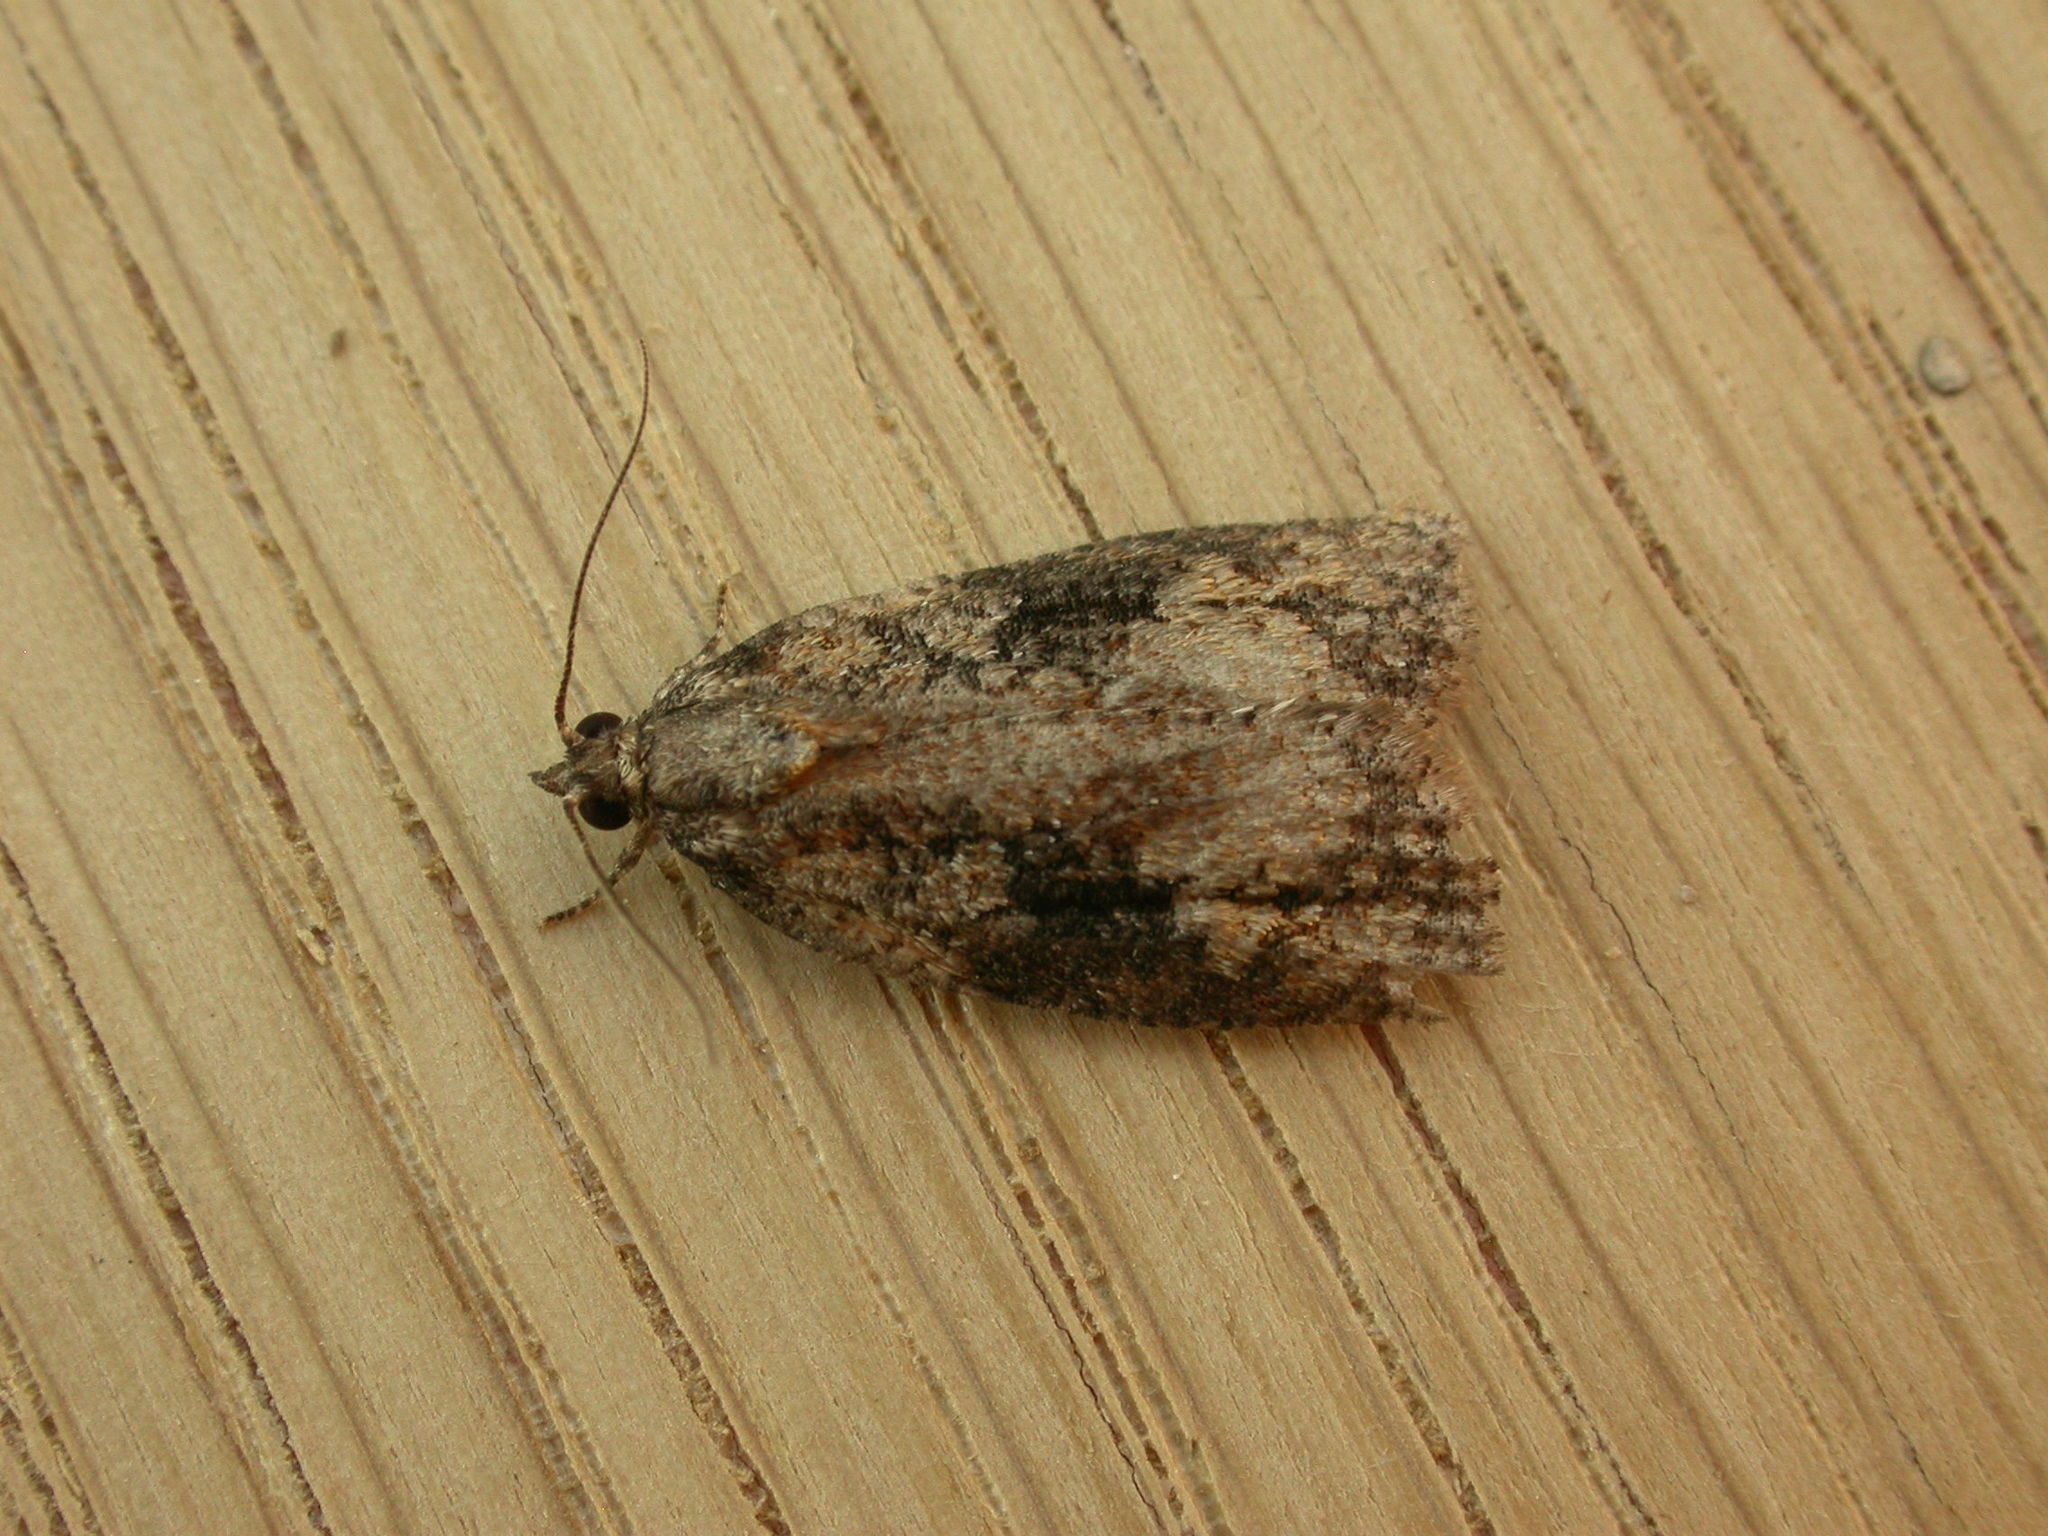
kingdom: Animalia
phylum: Arthropoda
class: Insecta
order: Lepidoptera
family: Tortricidae
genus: Acropolitis
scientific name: Acropolitis excelsa
